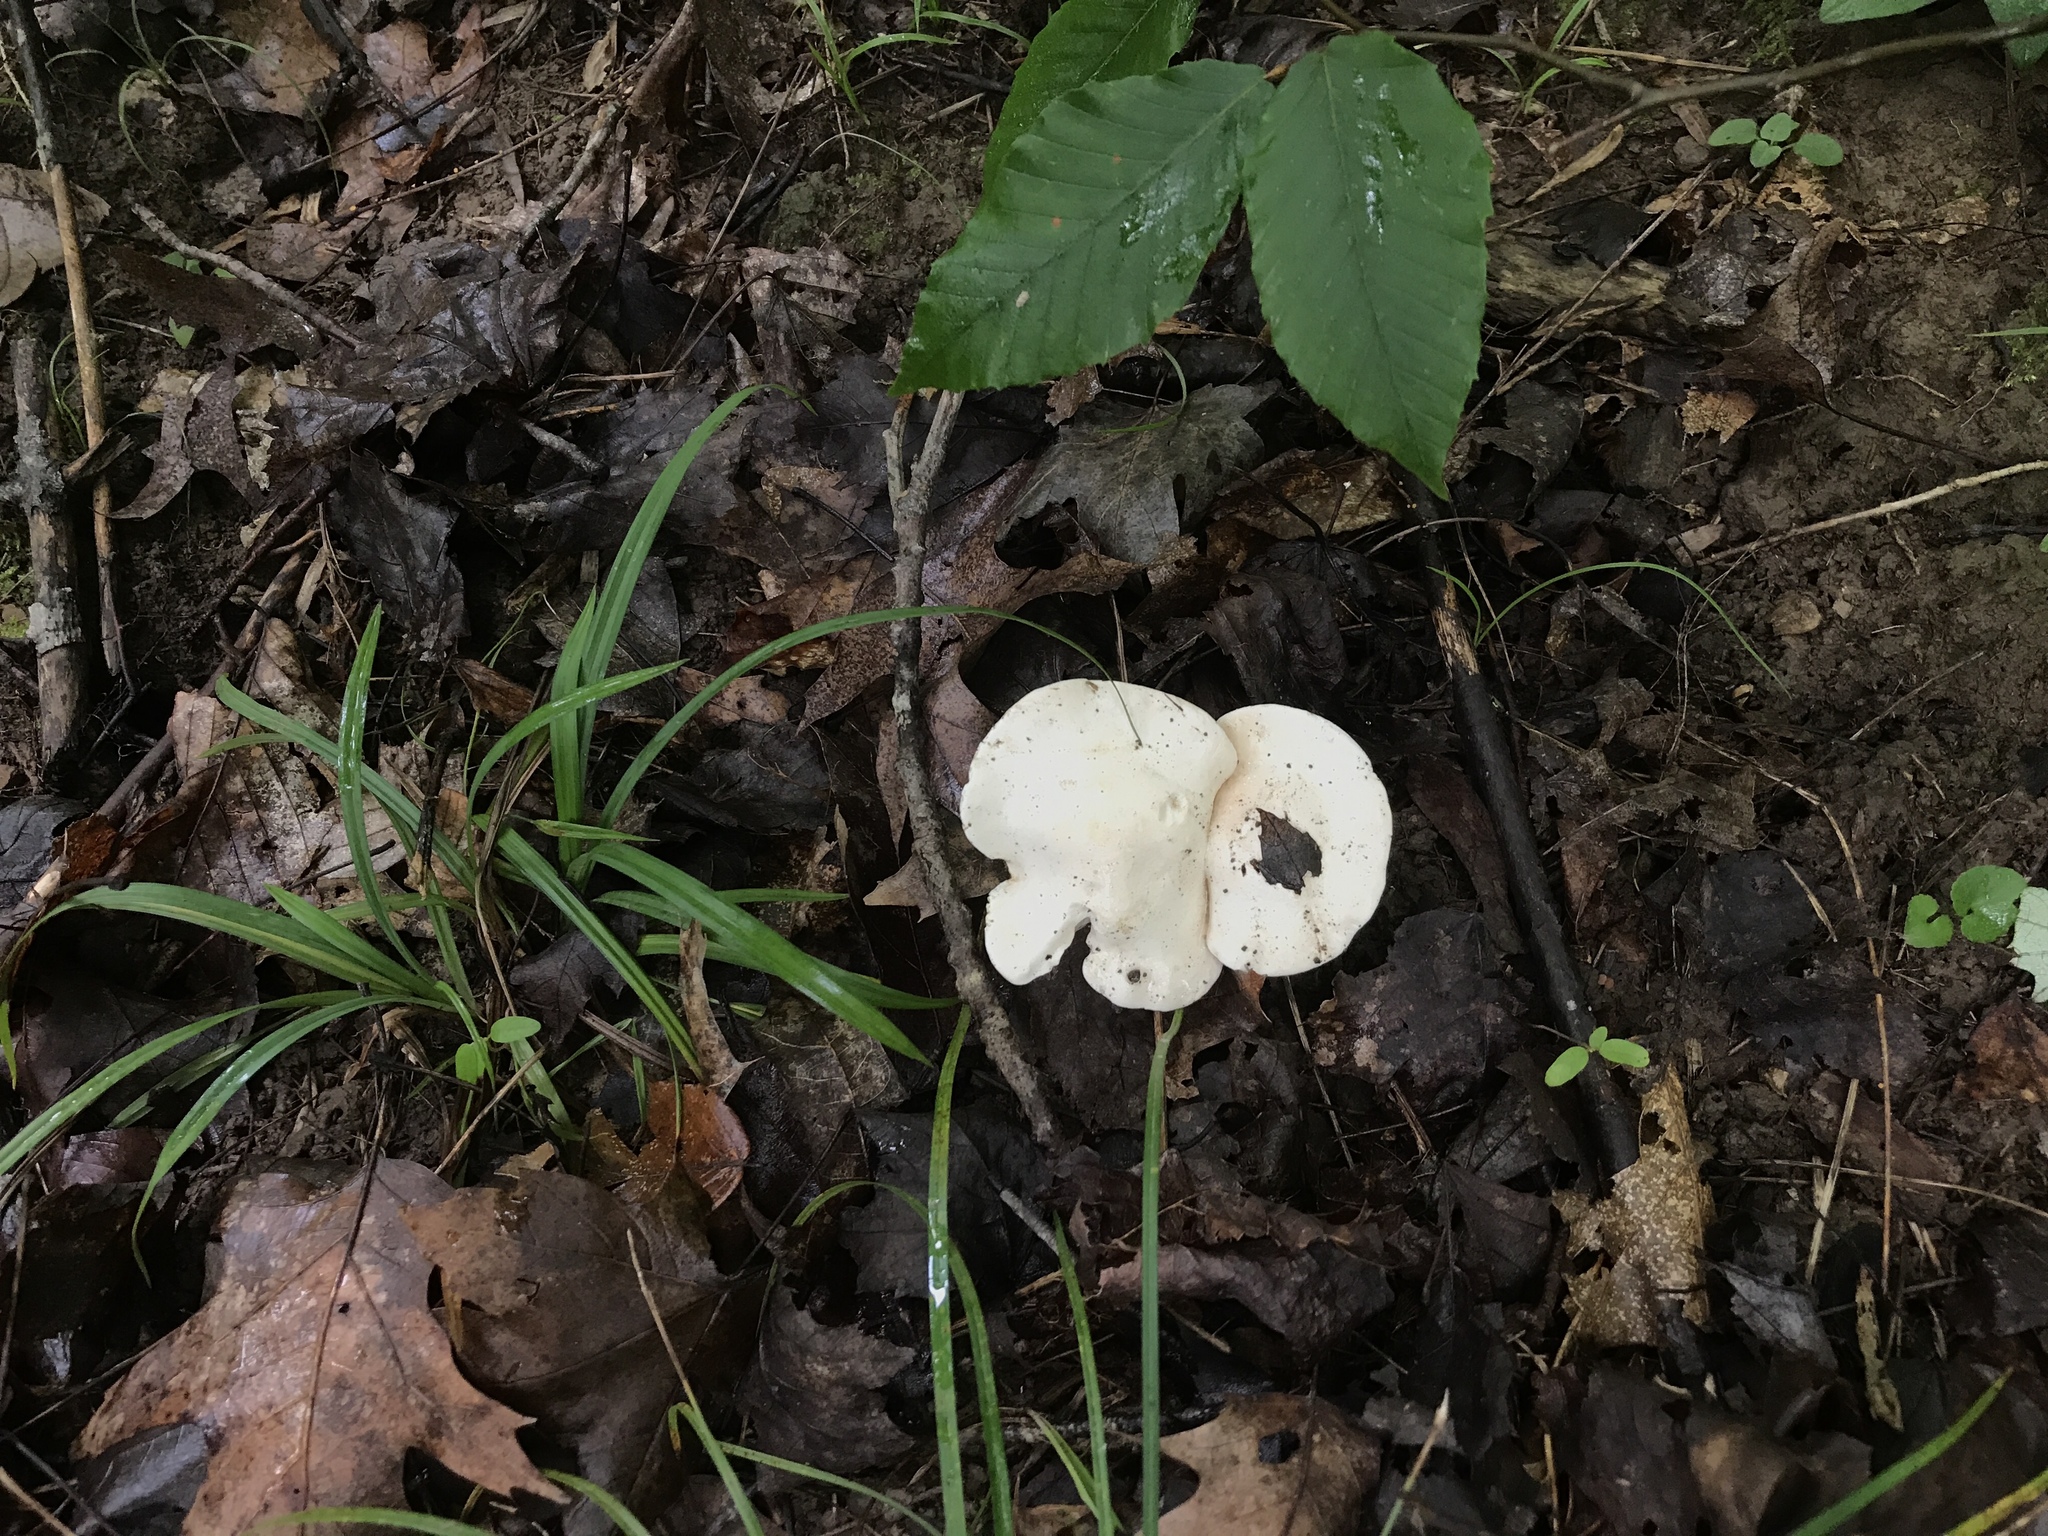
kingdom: Fungi
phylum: Basidiomycota
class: Agaricomycetes
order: Agaricales
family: Entolomataceae
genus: Clitopilus
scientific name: Clitopilus prunulus
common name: The miller
